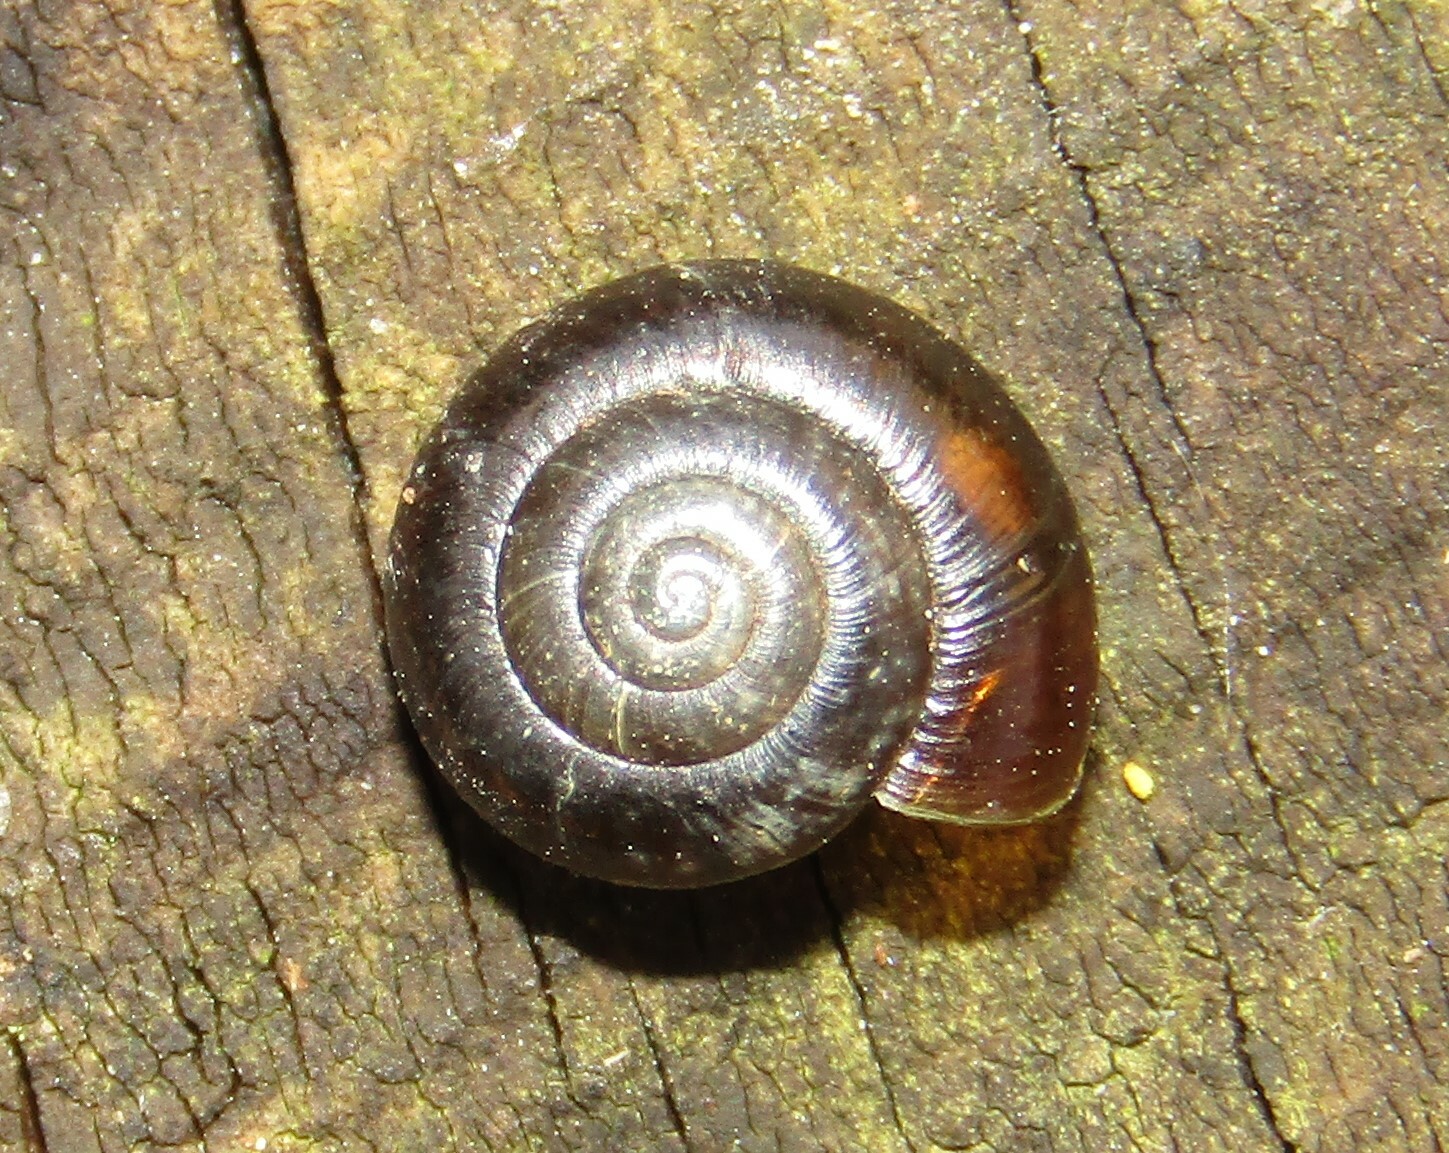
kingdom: Animalia
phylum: Mollusca
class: Gastropoda
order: Stylommatophora
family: Gastrodontidae
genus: Zonitoides
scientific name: Zonitoides nitidus
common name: Shiny glass snail
